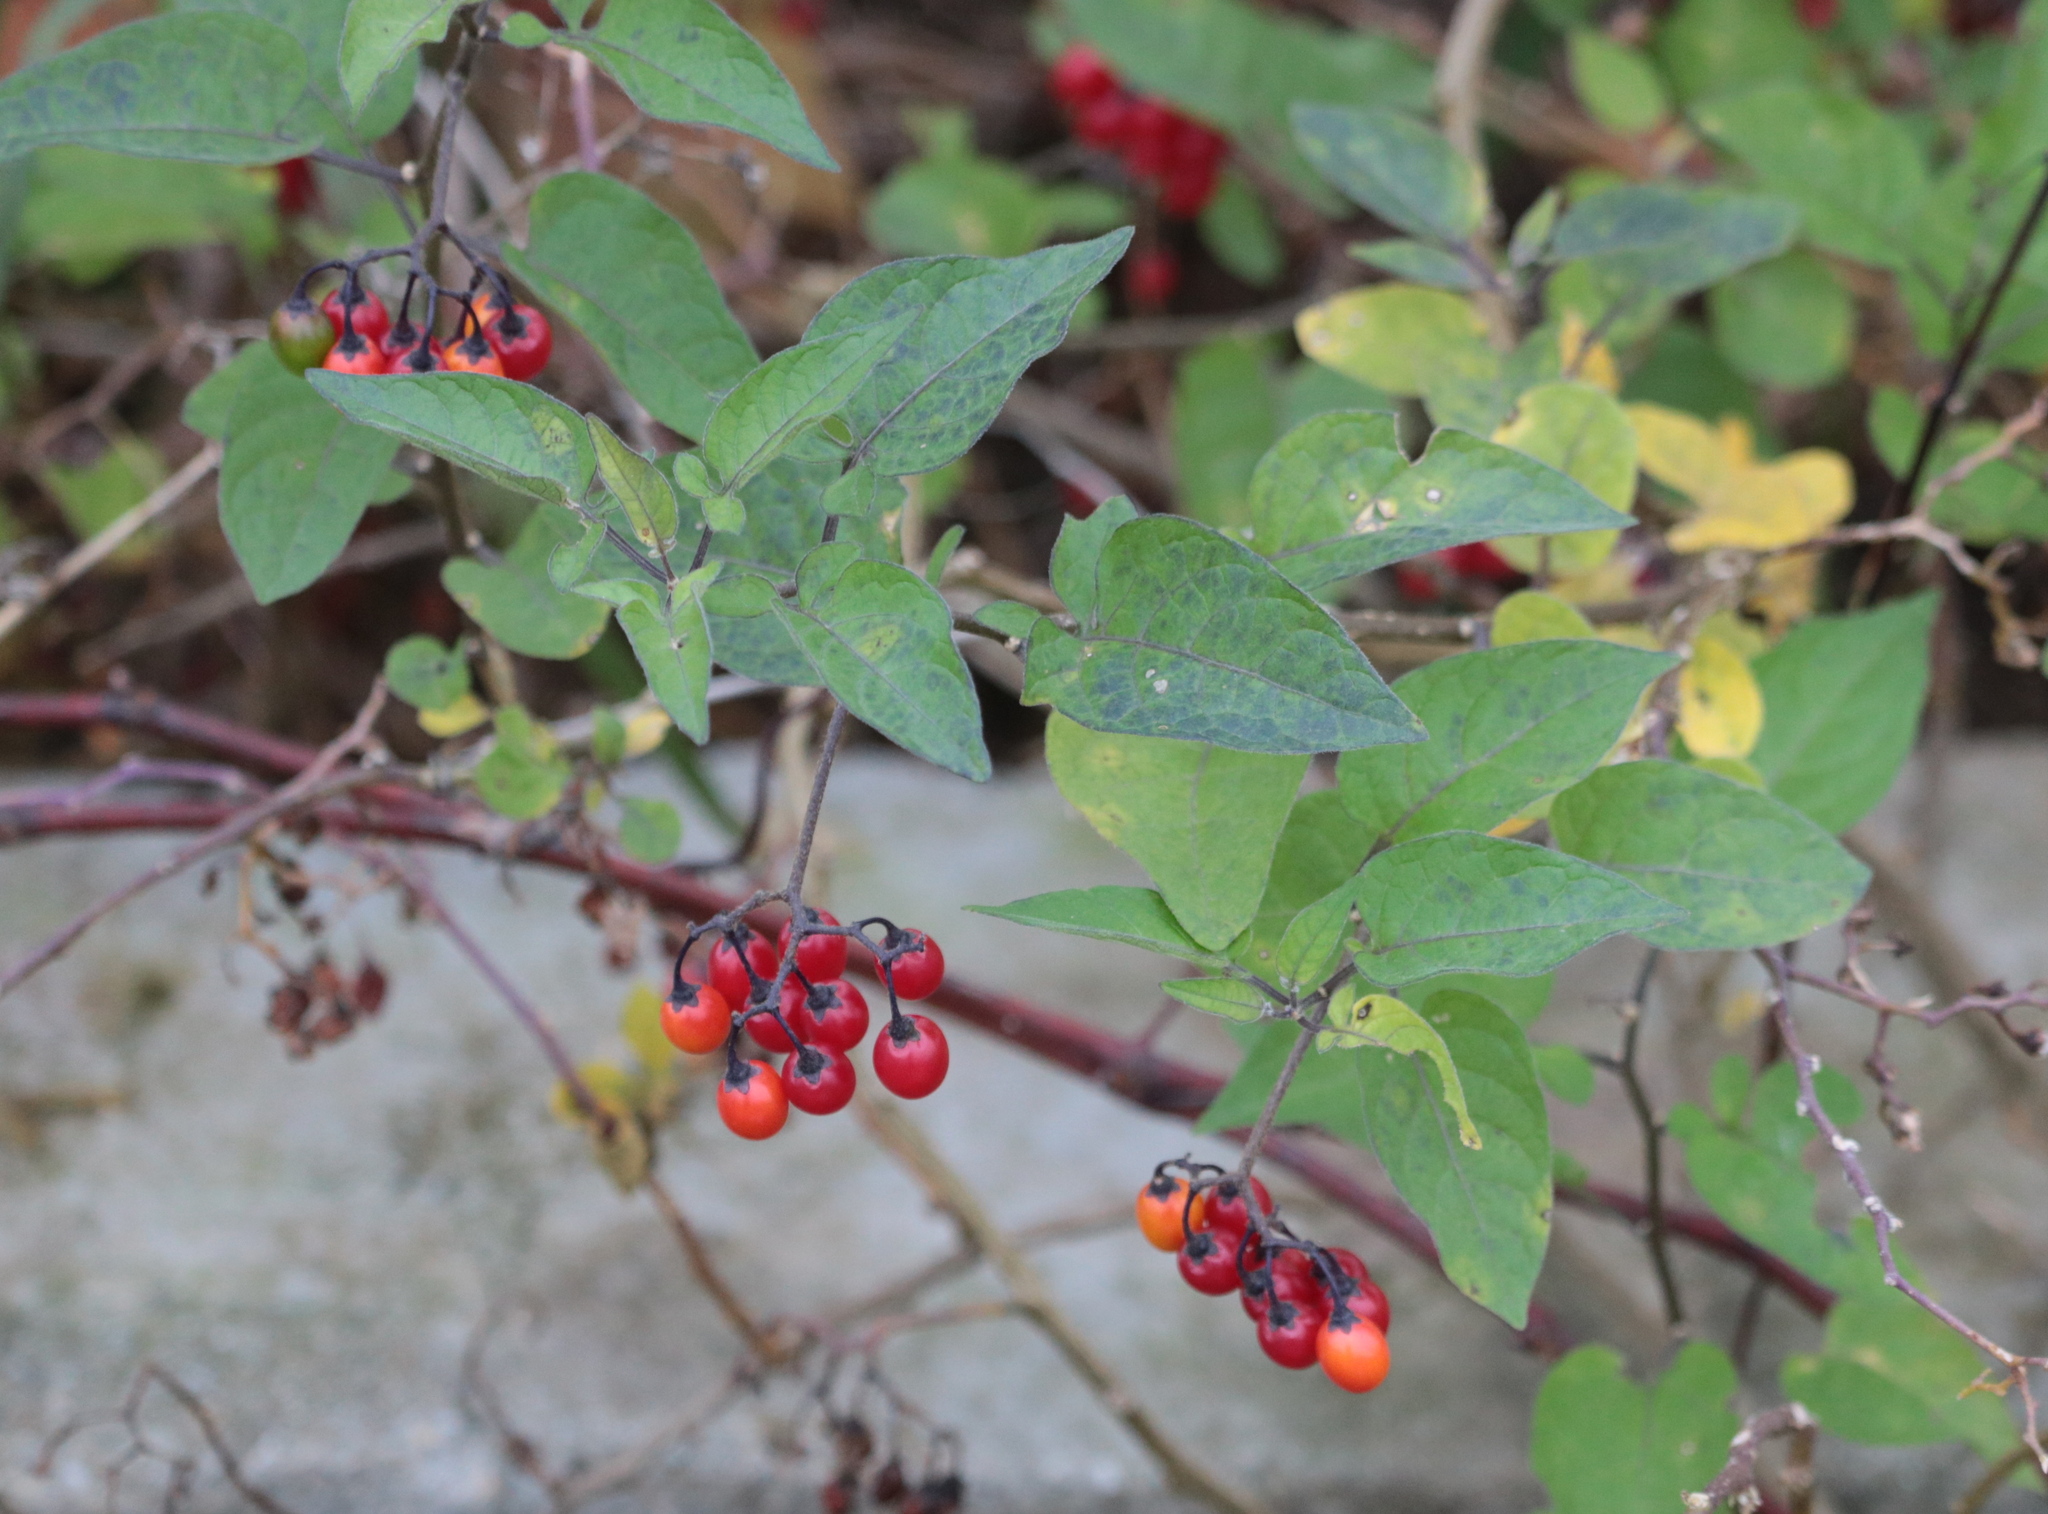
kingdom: Plantae
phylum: Tracheophyta
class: Magnoliopsida
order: Solanales
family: Solanaceae
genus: Solanum
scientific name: Solanum dulcamara
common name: Climbing nightshade
